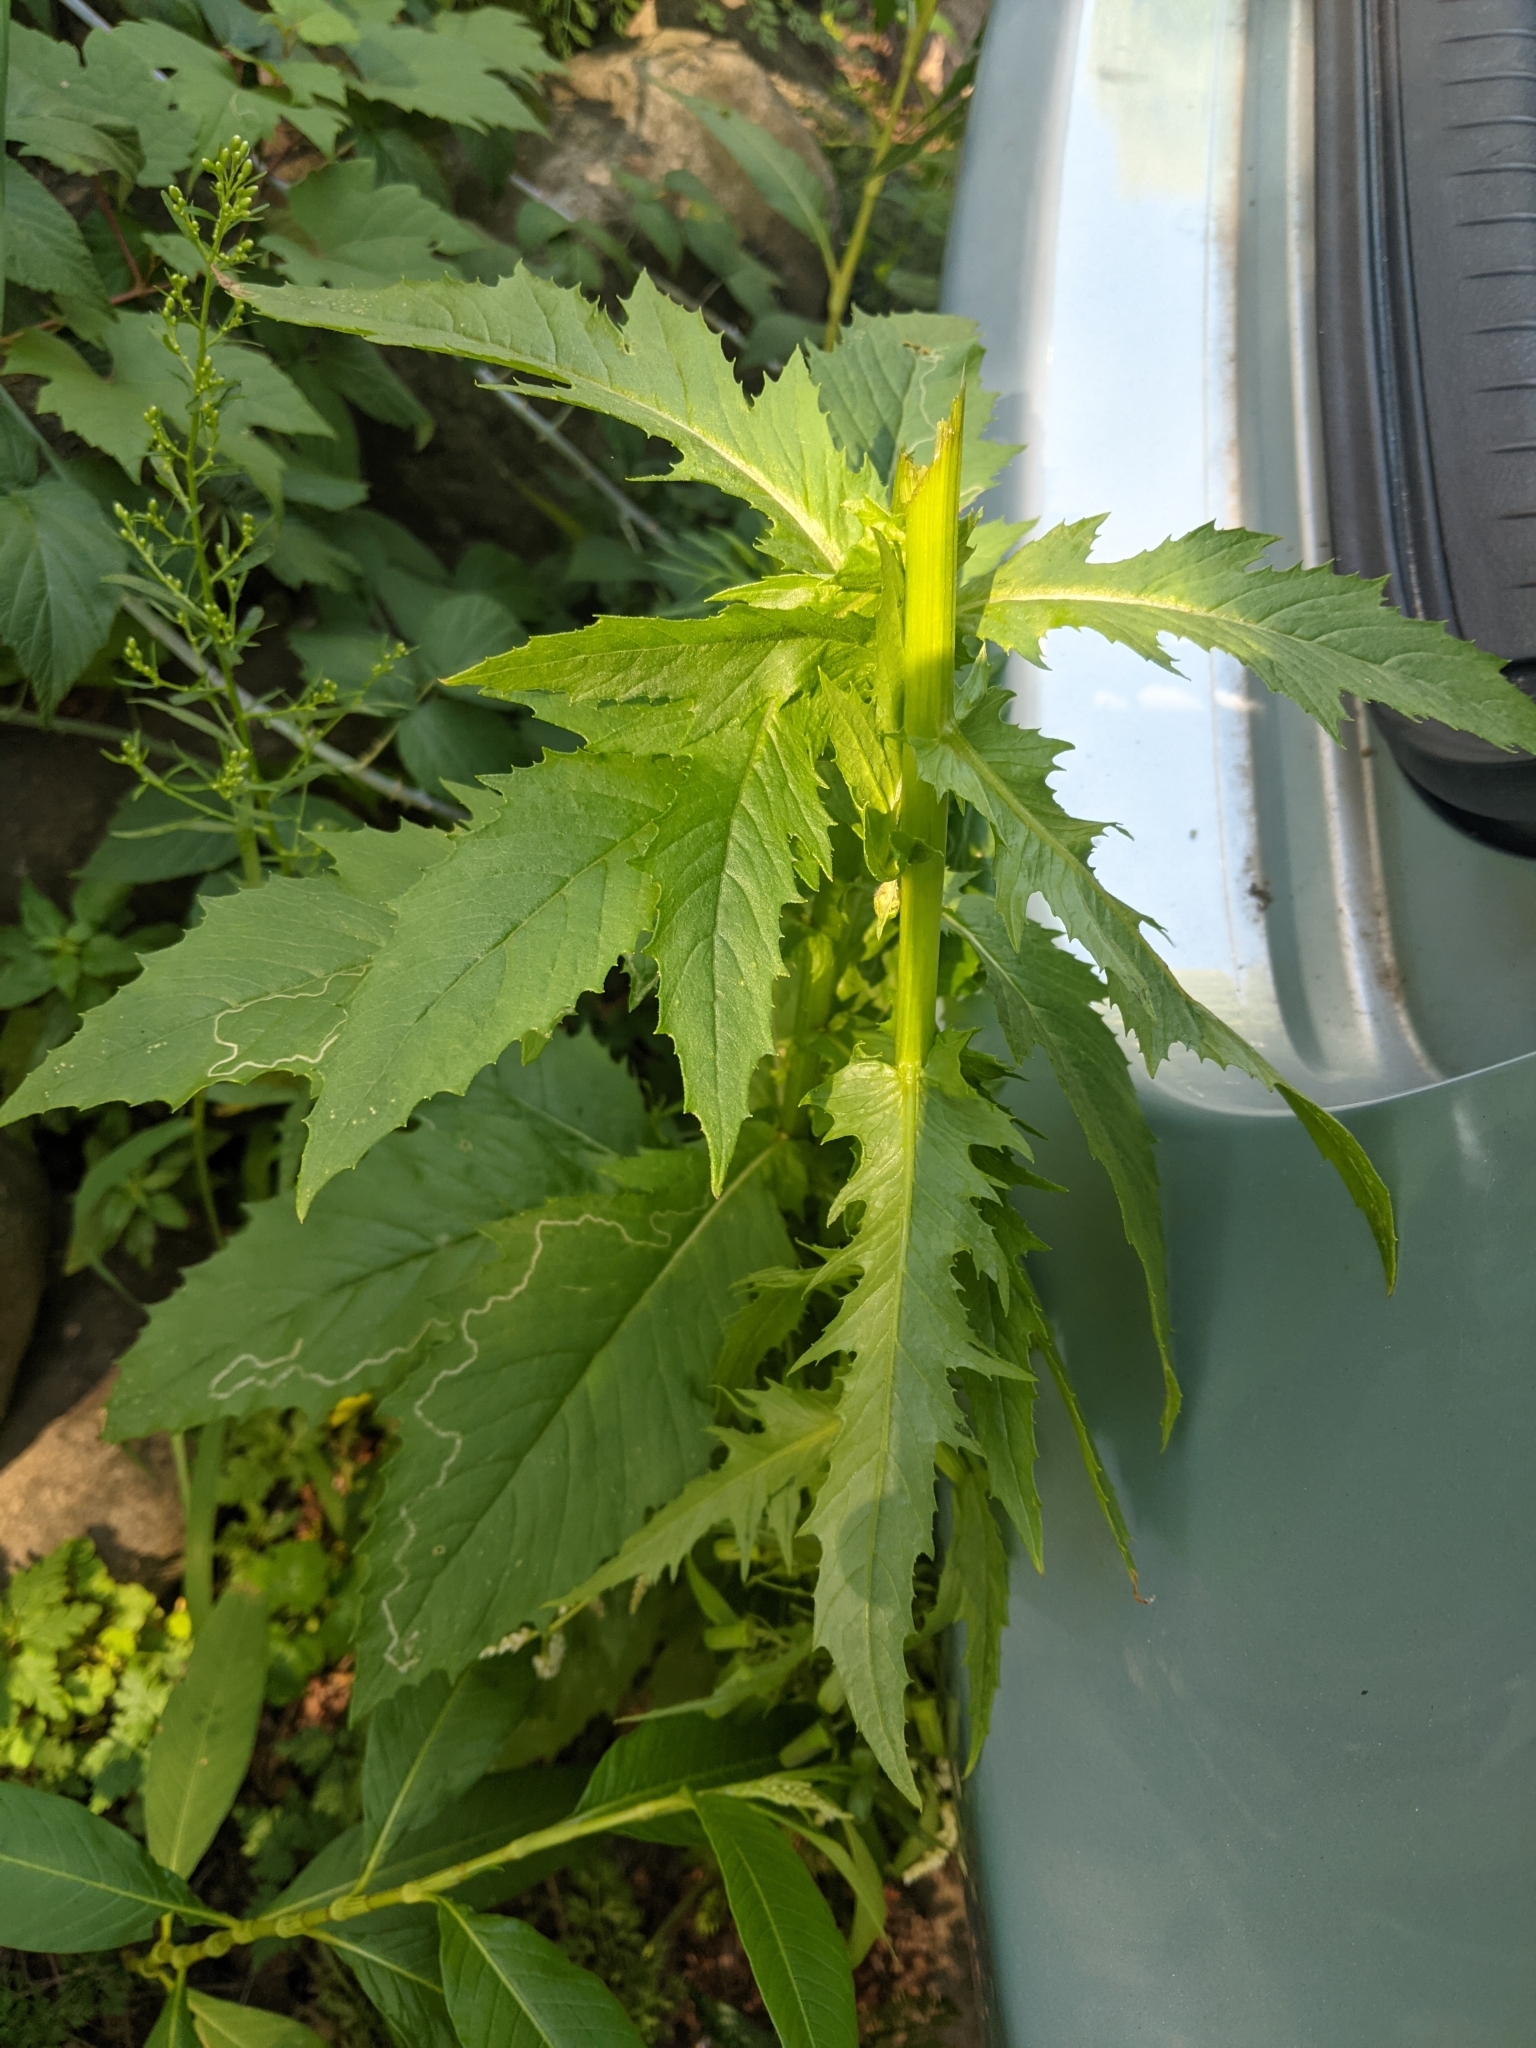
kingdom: Plantae
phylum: Tracheophyta
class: Magnoliopsida
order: Asterales
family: Asteraceae
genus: Erechtites
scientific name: Erechtites hieraciifolius
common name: American burnweed
